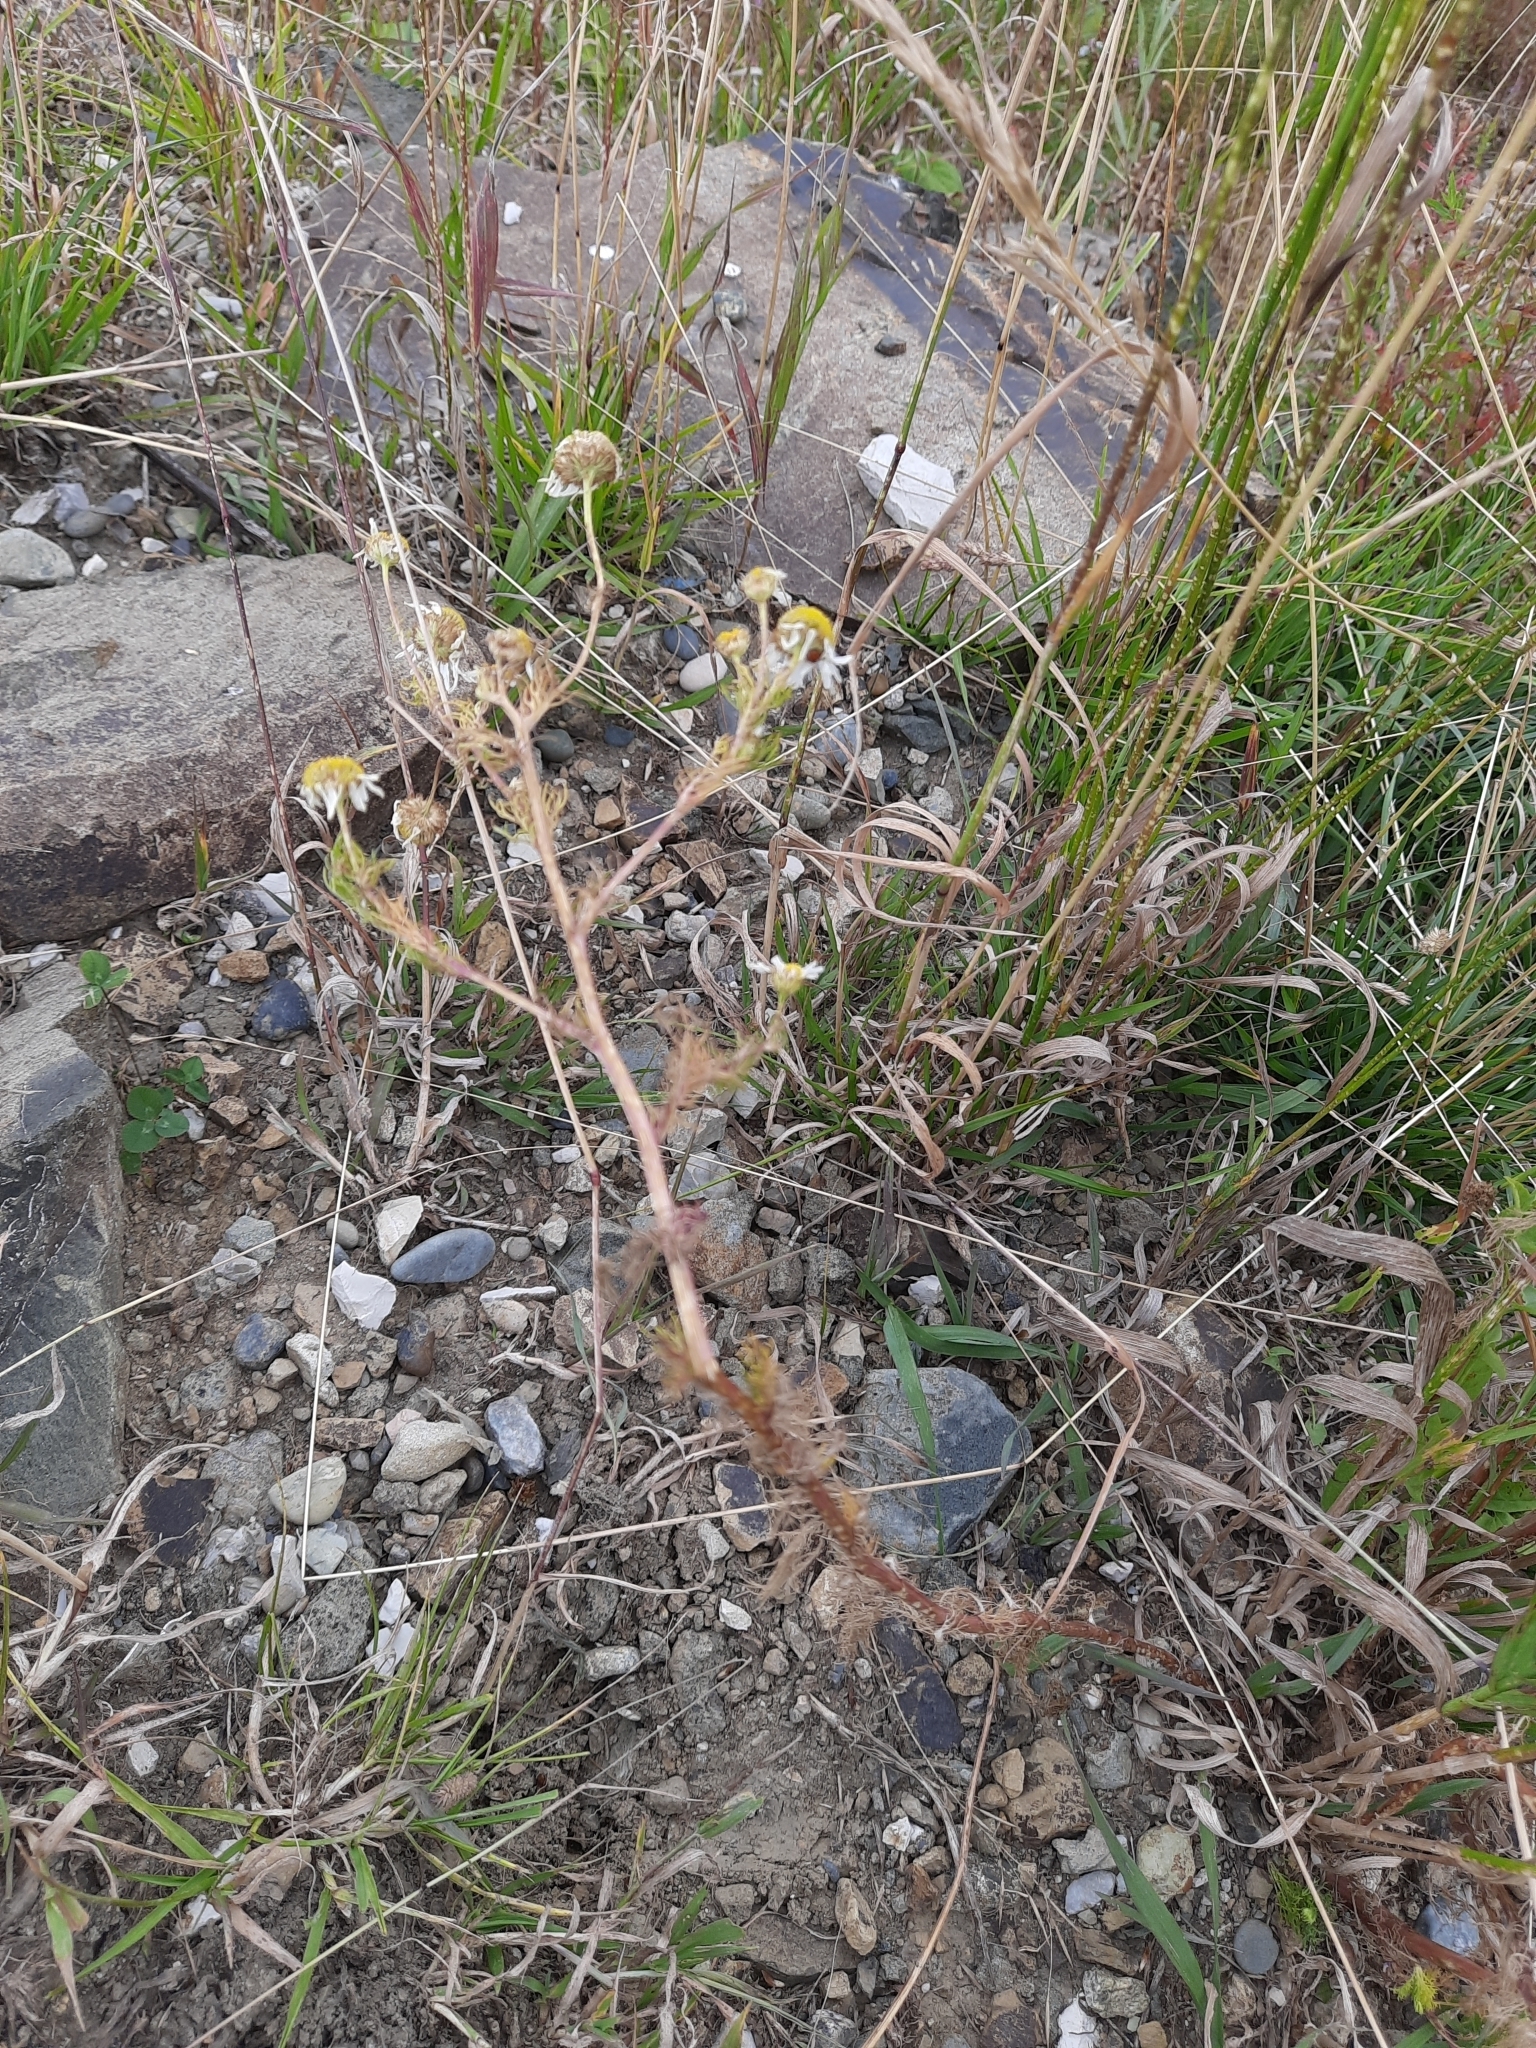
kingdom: Plantae
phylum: Tracheophyta
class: Magnoliopsida
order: Asterales
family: Asteraceae
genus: Tripleurospermum
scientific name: Tripleurospermum inodorum
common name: Scentless mayweed
